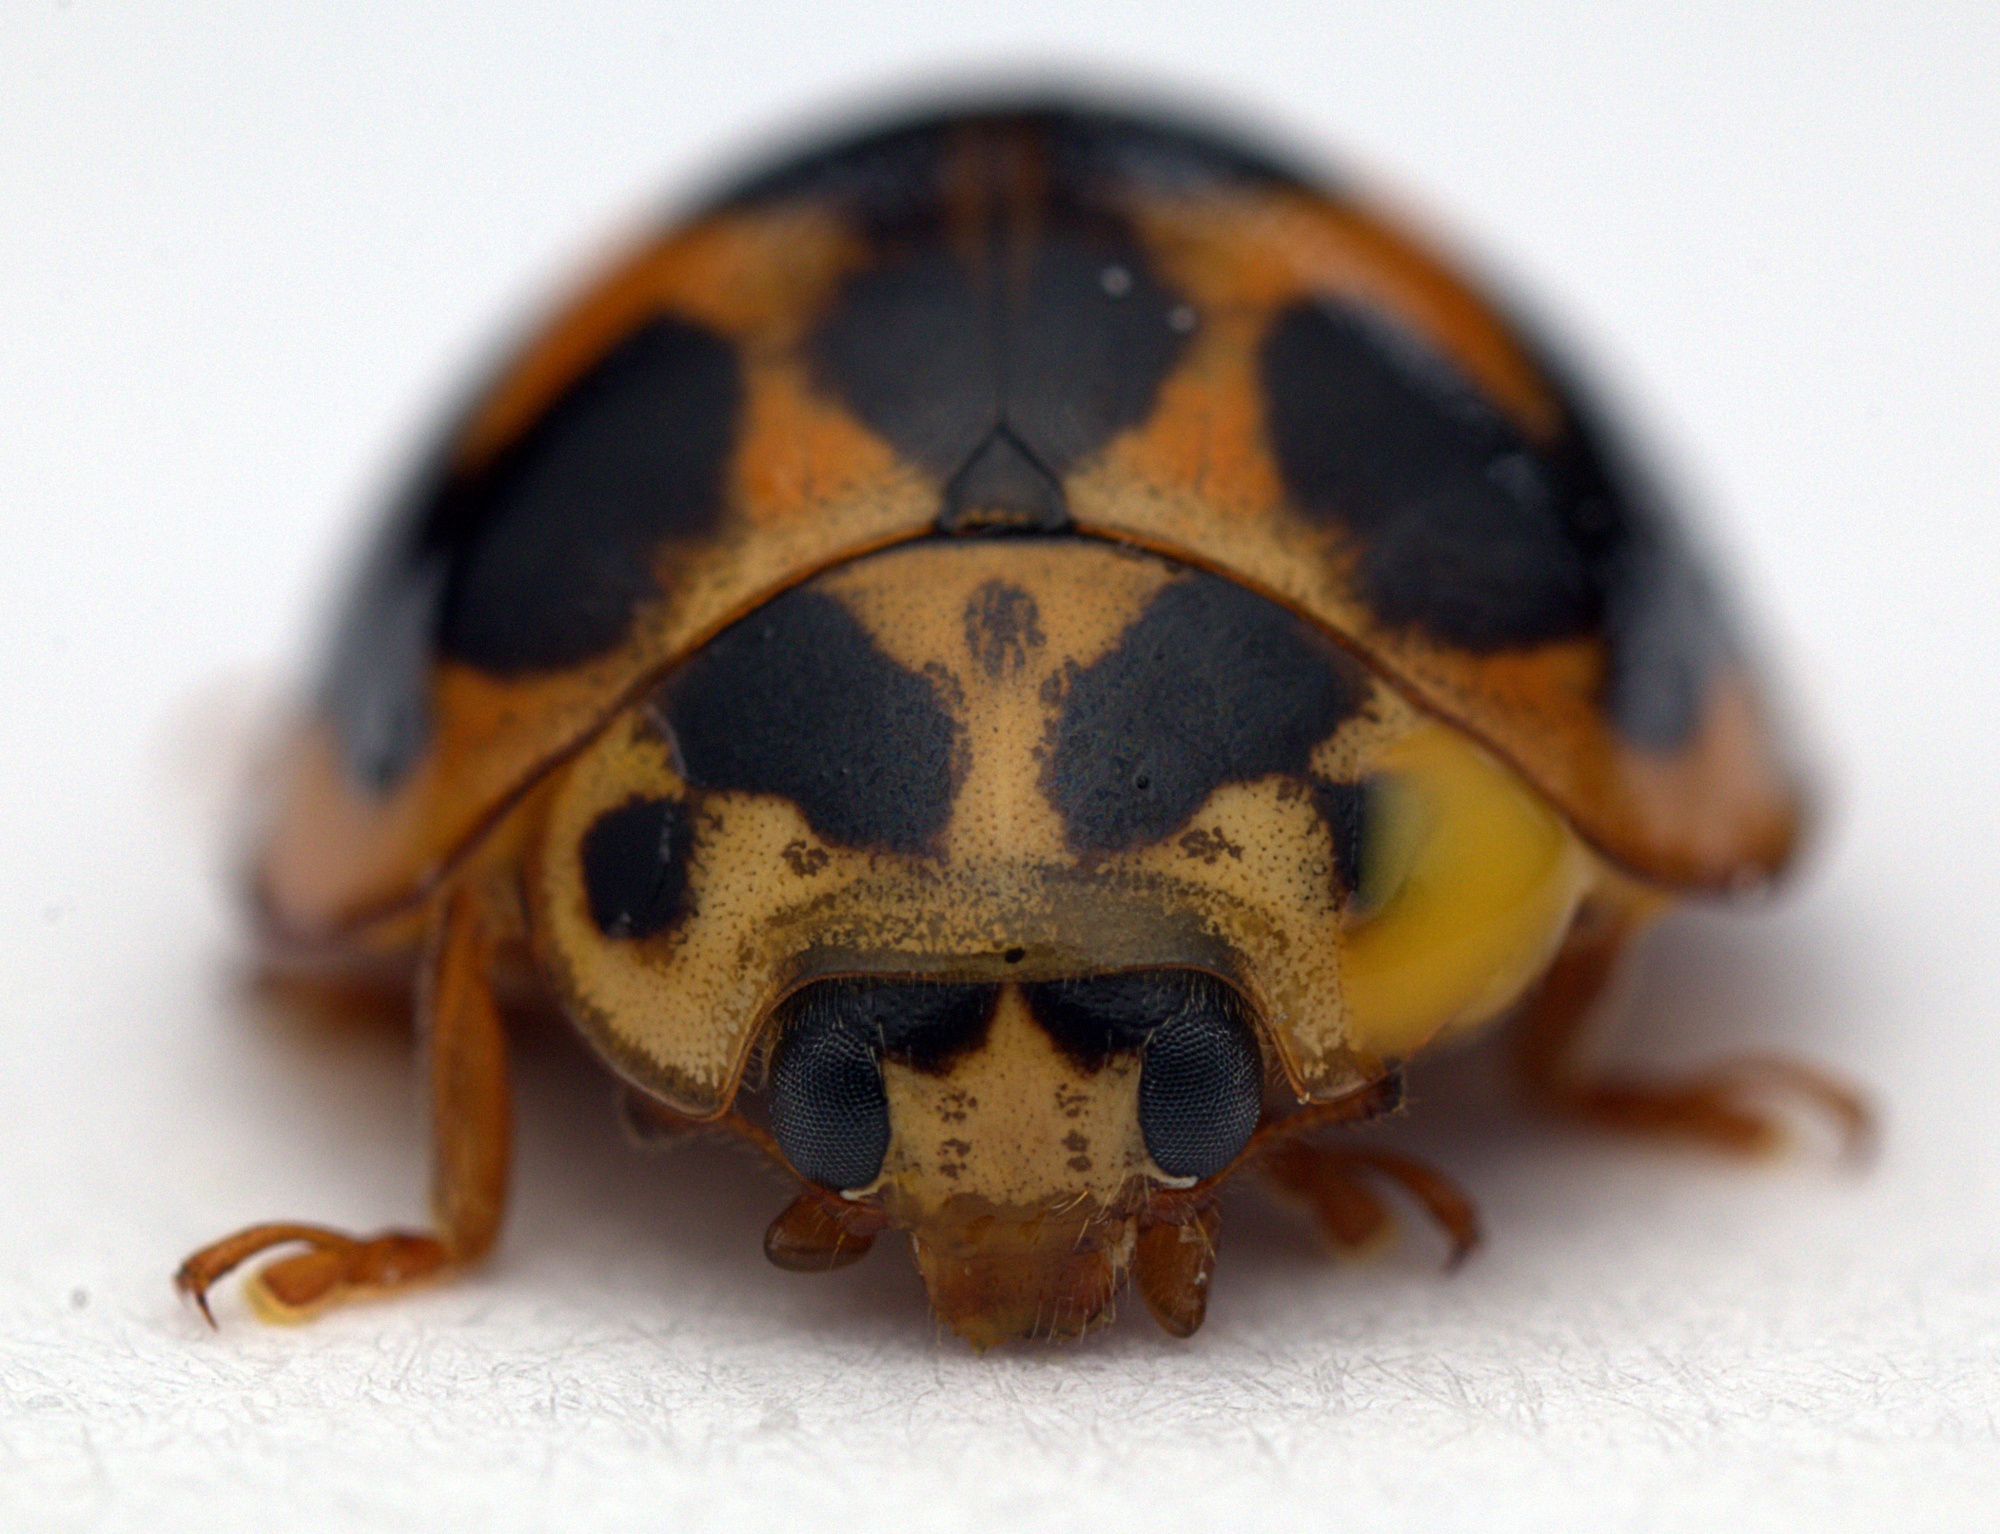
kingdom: Animalia
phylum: Arthropoda
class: Insecta
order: Coleoptera
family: Coccinellidae
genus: Harmonia
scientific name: Harmonia conformis
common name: Common spotted ladybird beetle
